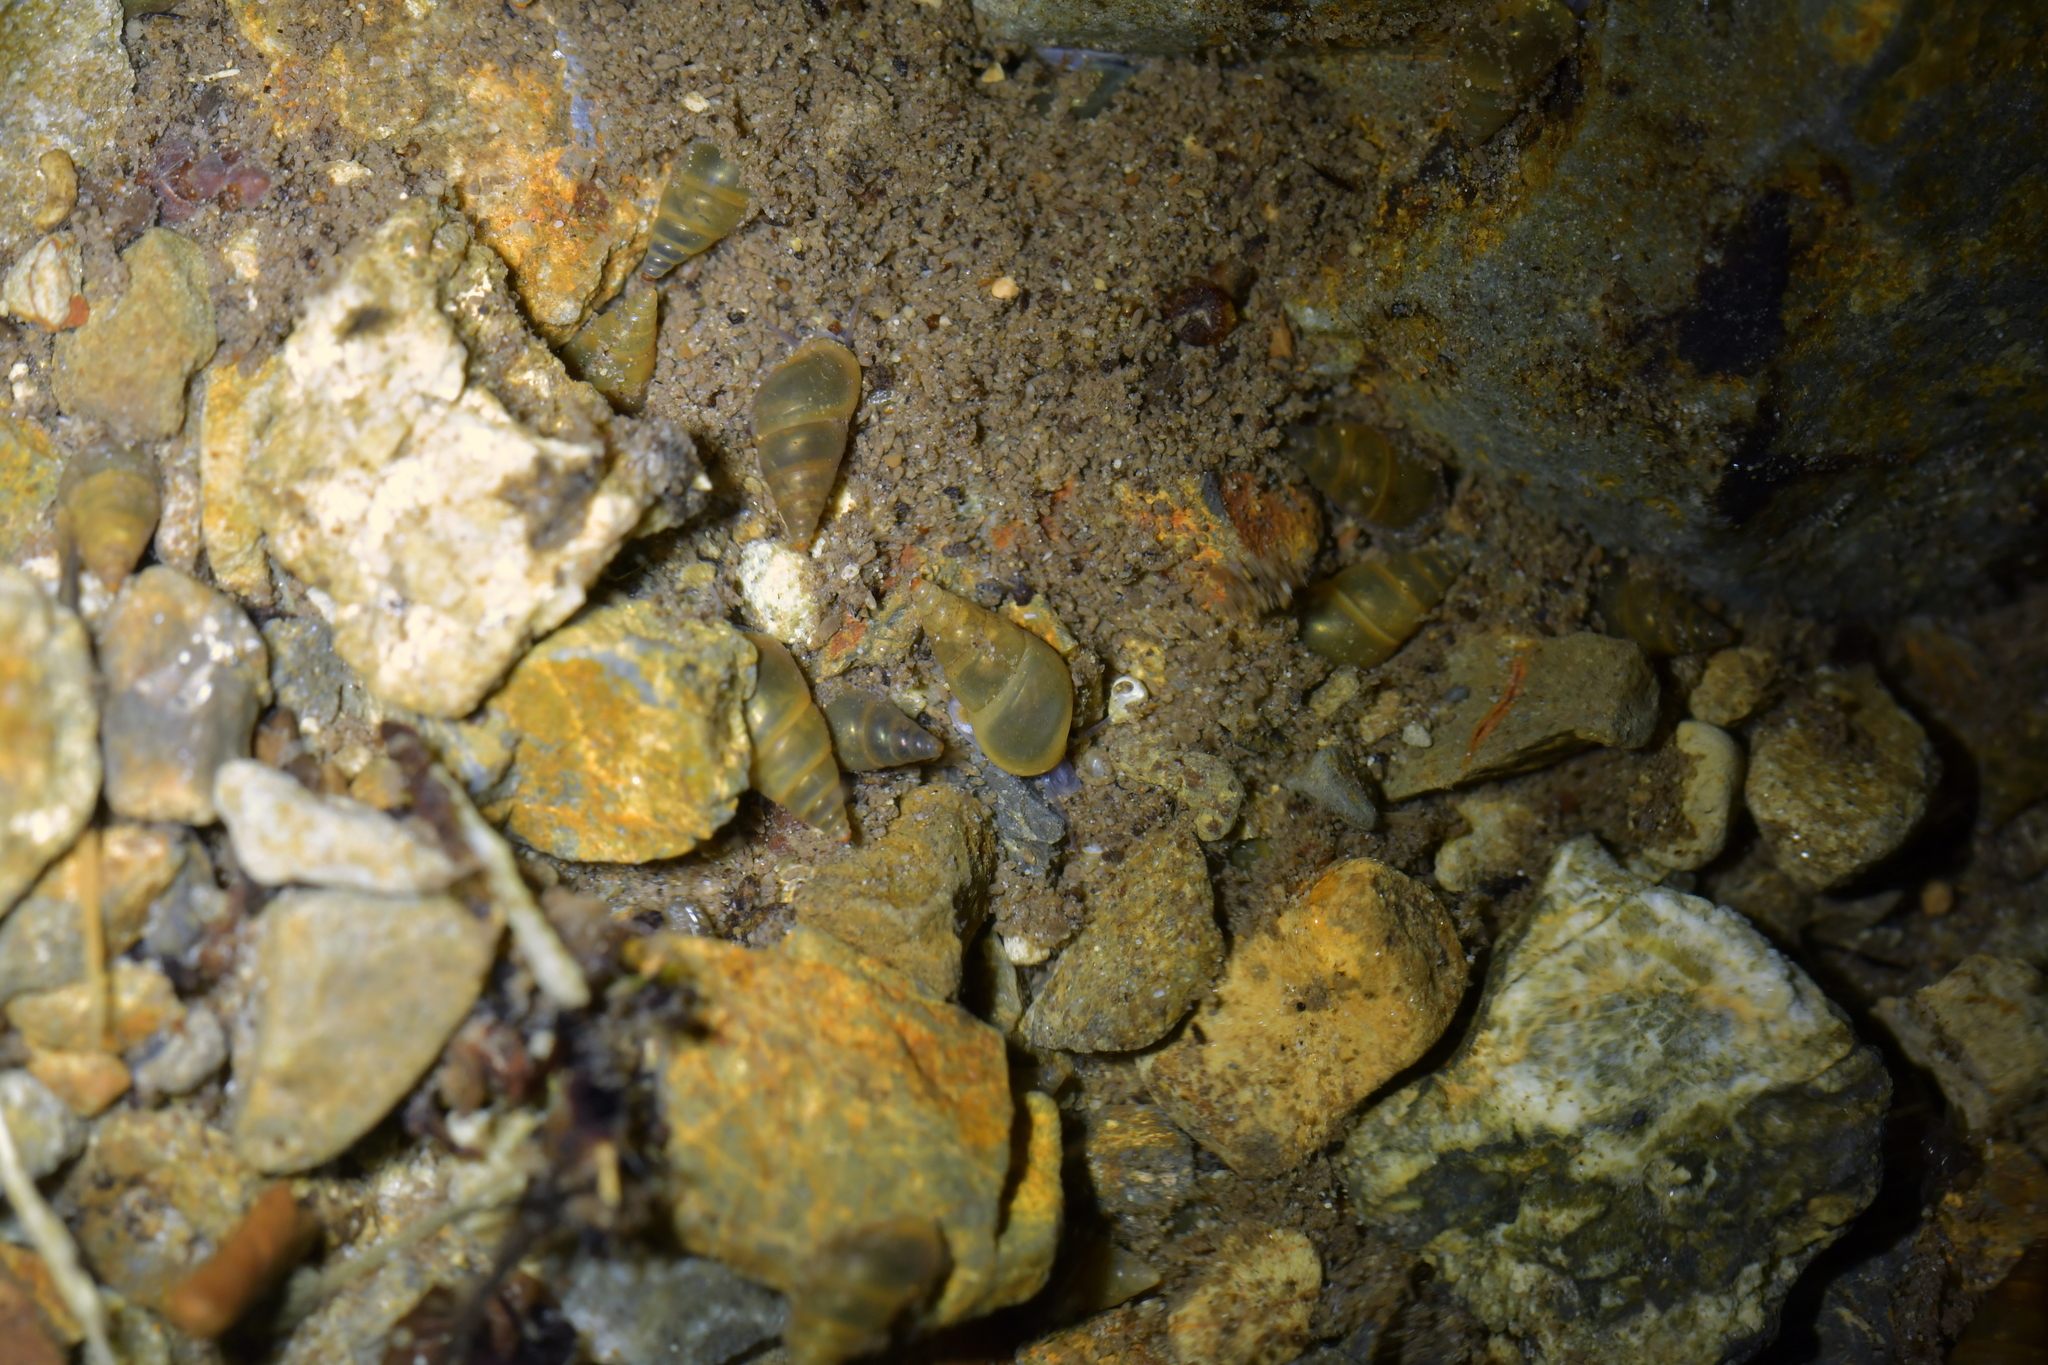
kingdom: Animalia
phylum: Mollusca
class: Gastropoda
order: Littorinimorpha
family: Tateidae
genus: Potamopyrgus
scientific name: Potamopyrgus antipodarum
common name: Jenkins' spire snail
